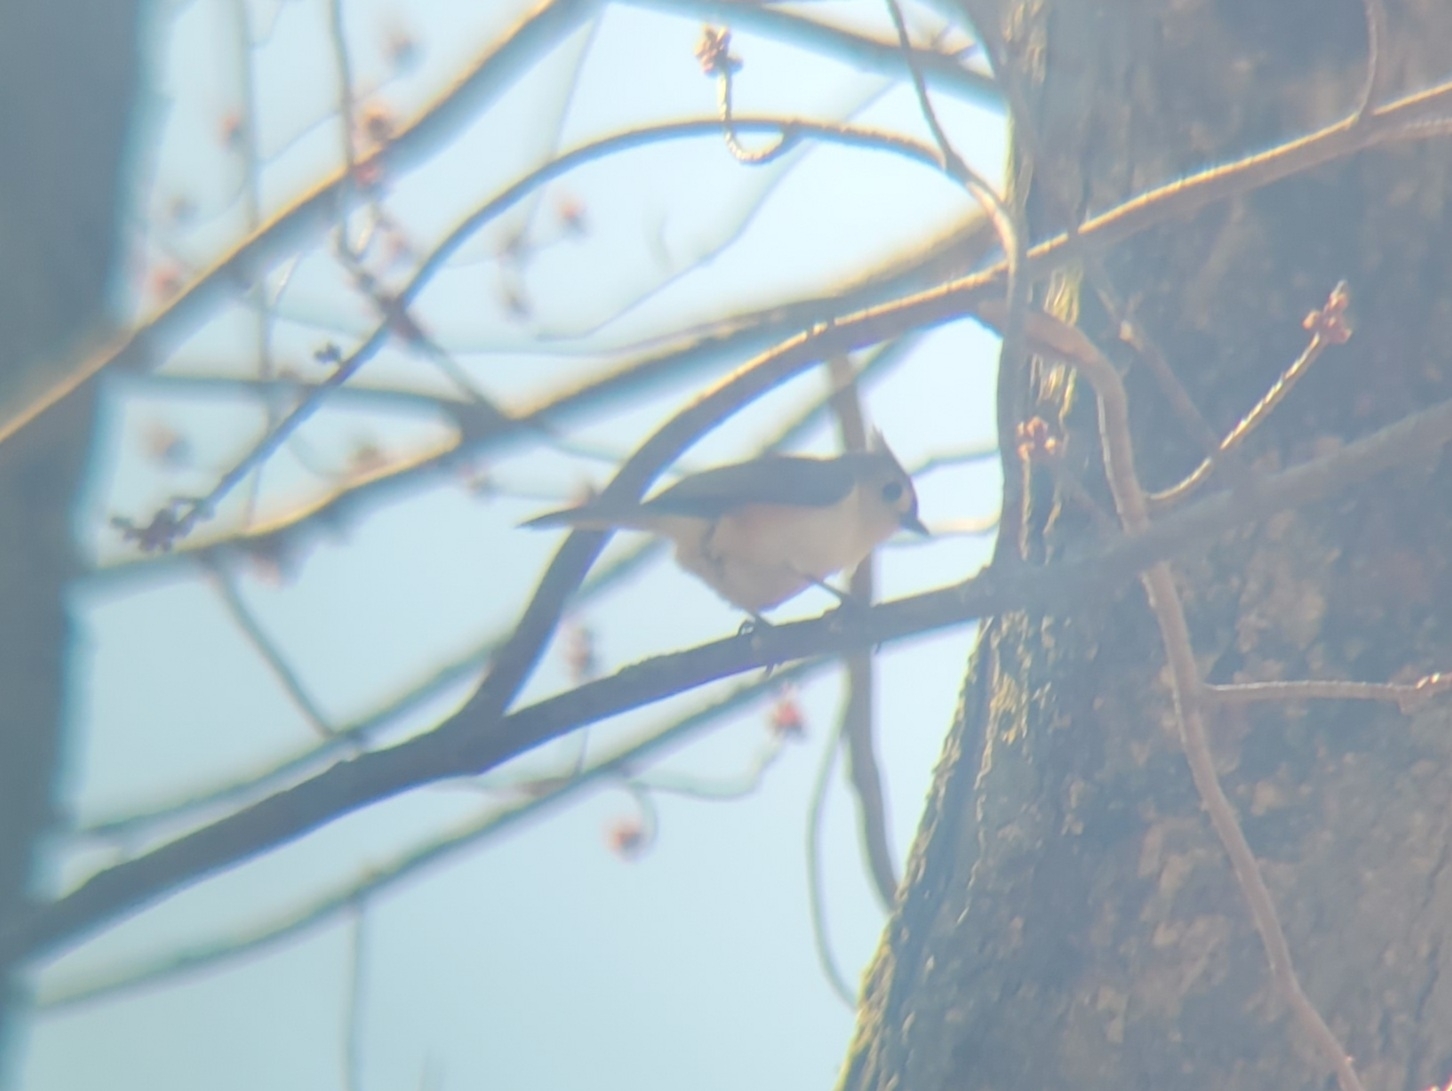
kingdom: Animalia
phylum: Chordata
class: Aves
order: Passeriformes
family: Paridae
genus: Baeolophus
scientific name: Baeolophus bicolor
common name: Tufted titmouse
